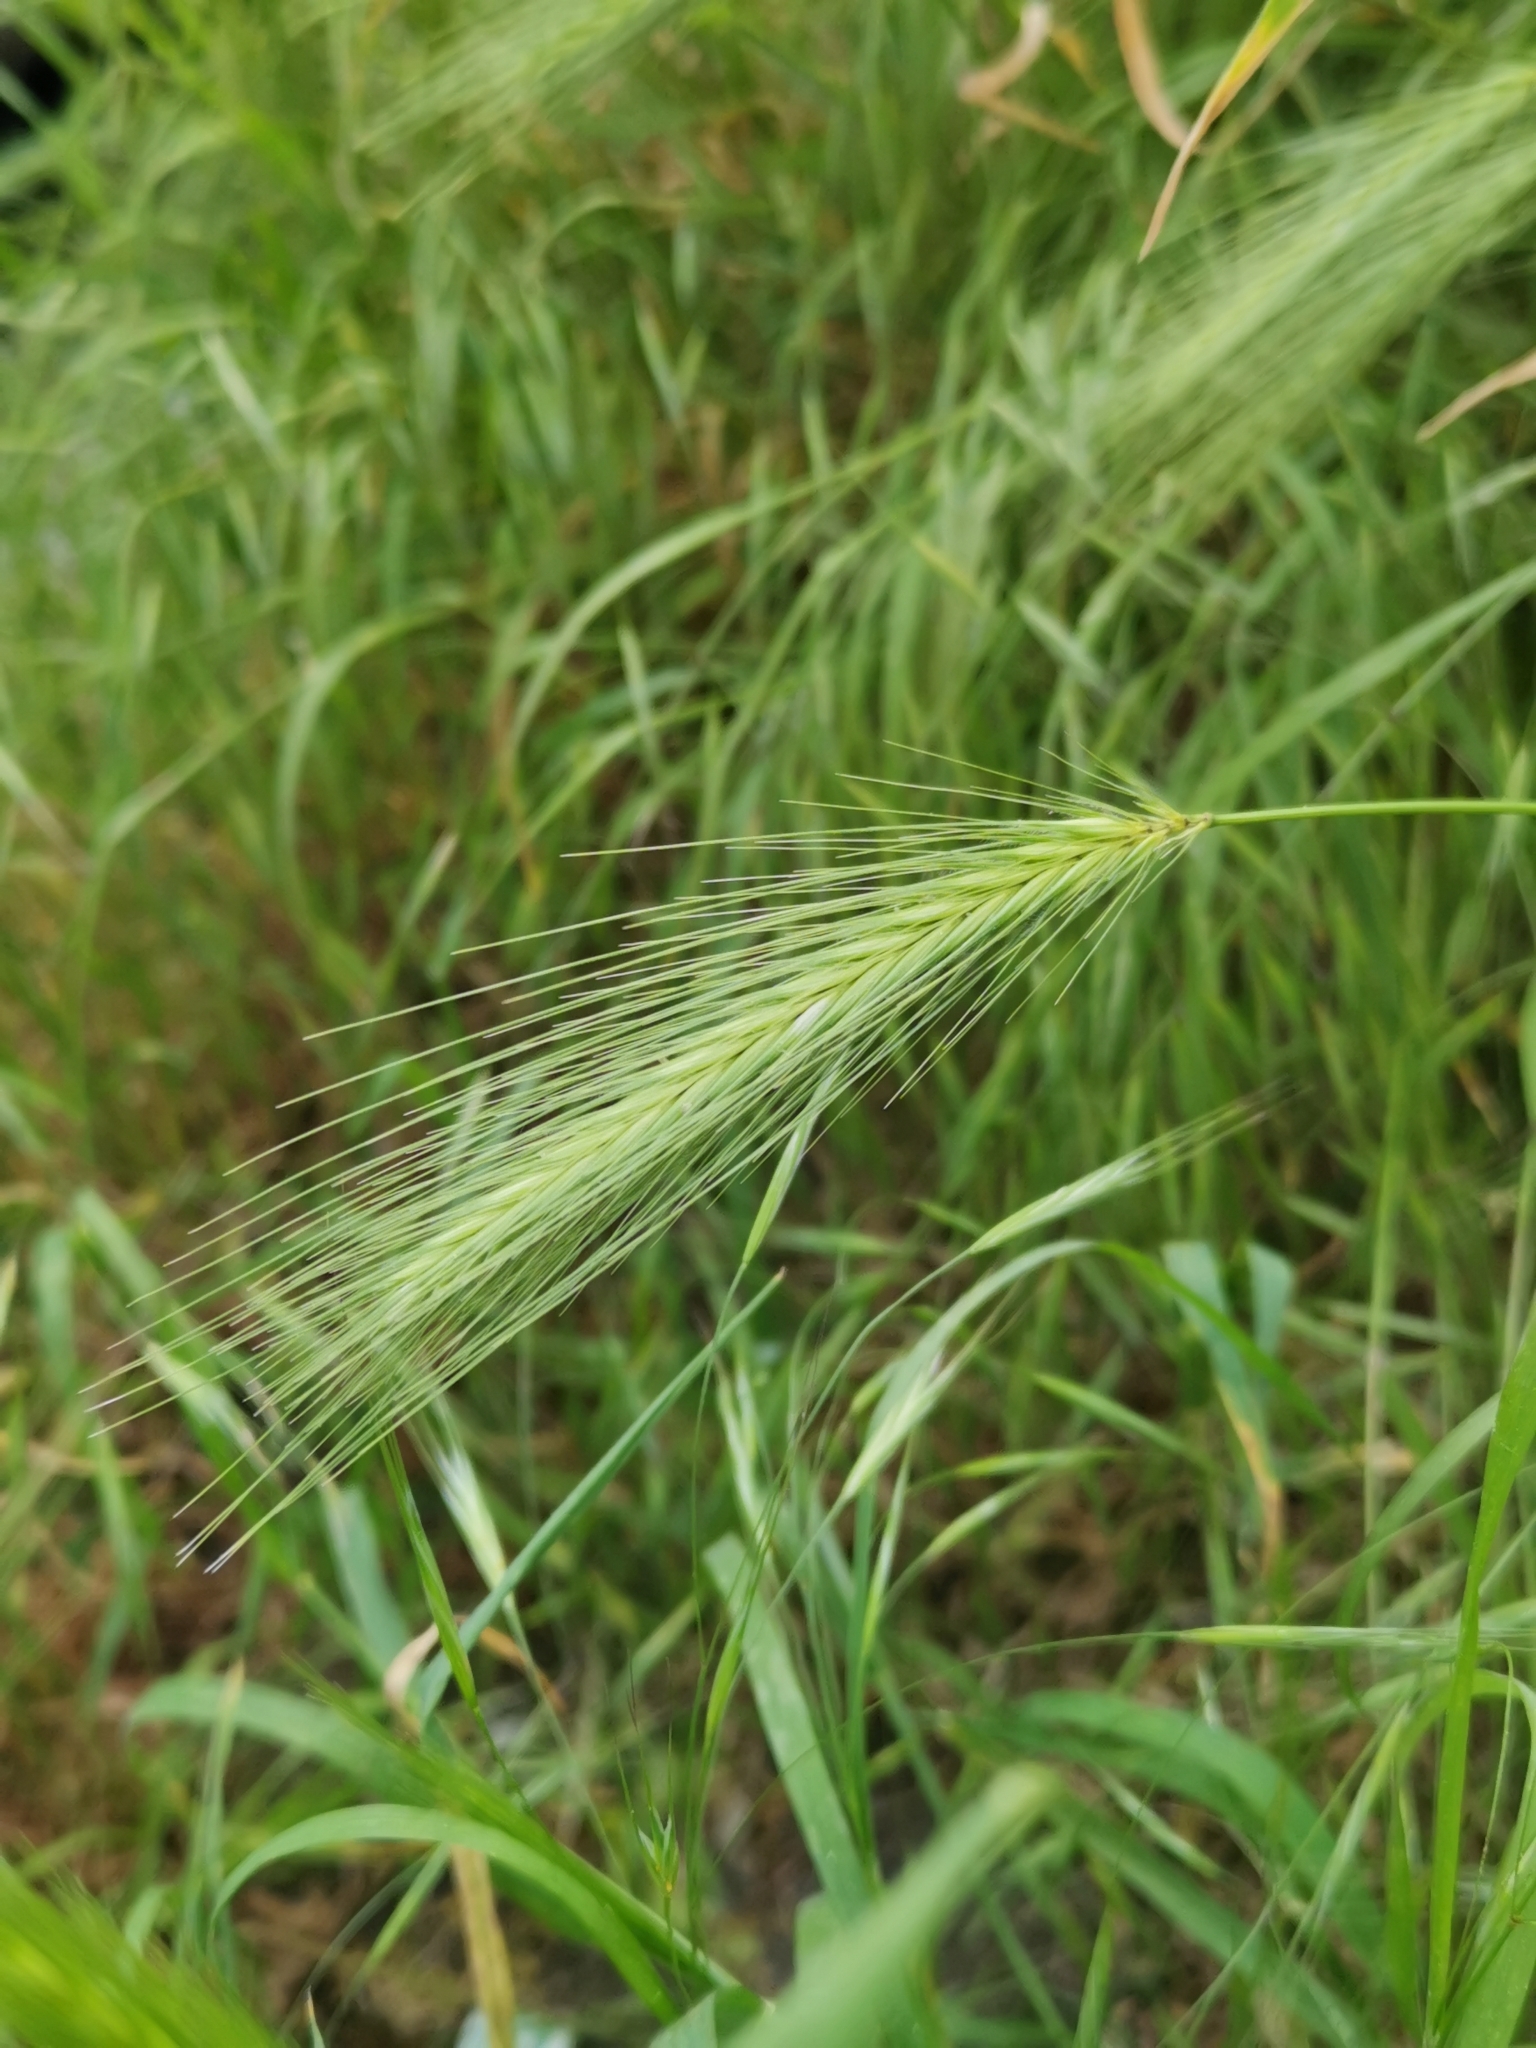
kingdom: Plantae
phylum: Tracheophyta
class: Liliopsida
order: Poales
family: Poaceae
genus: Hordeum
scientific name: Hordeum murinum
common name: Wall barley
